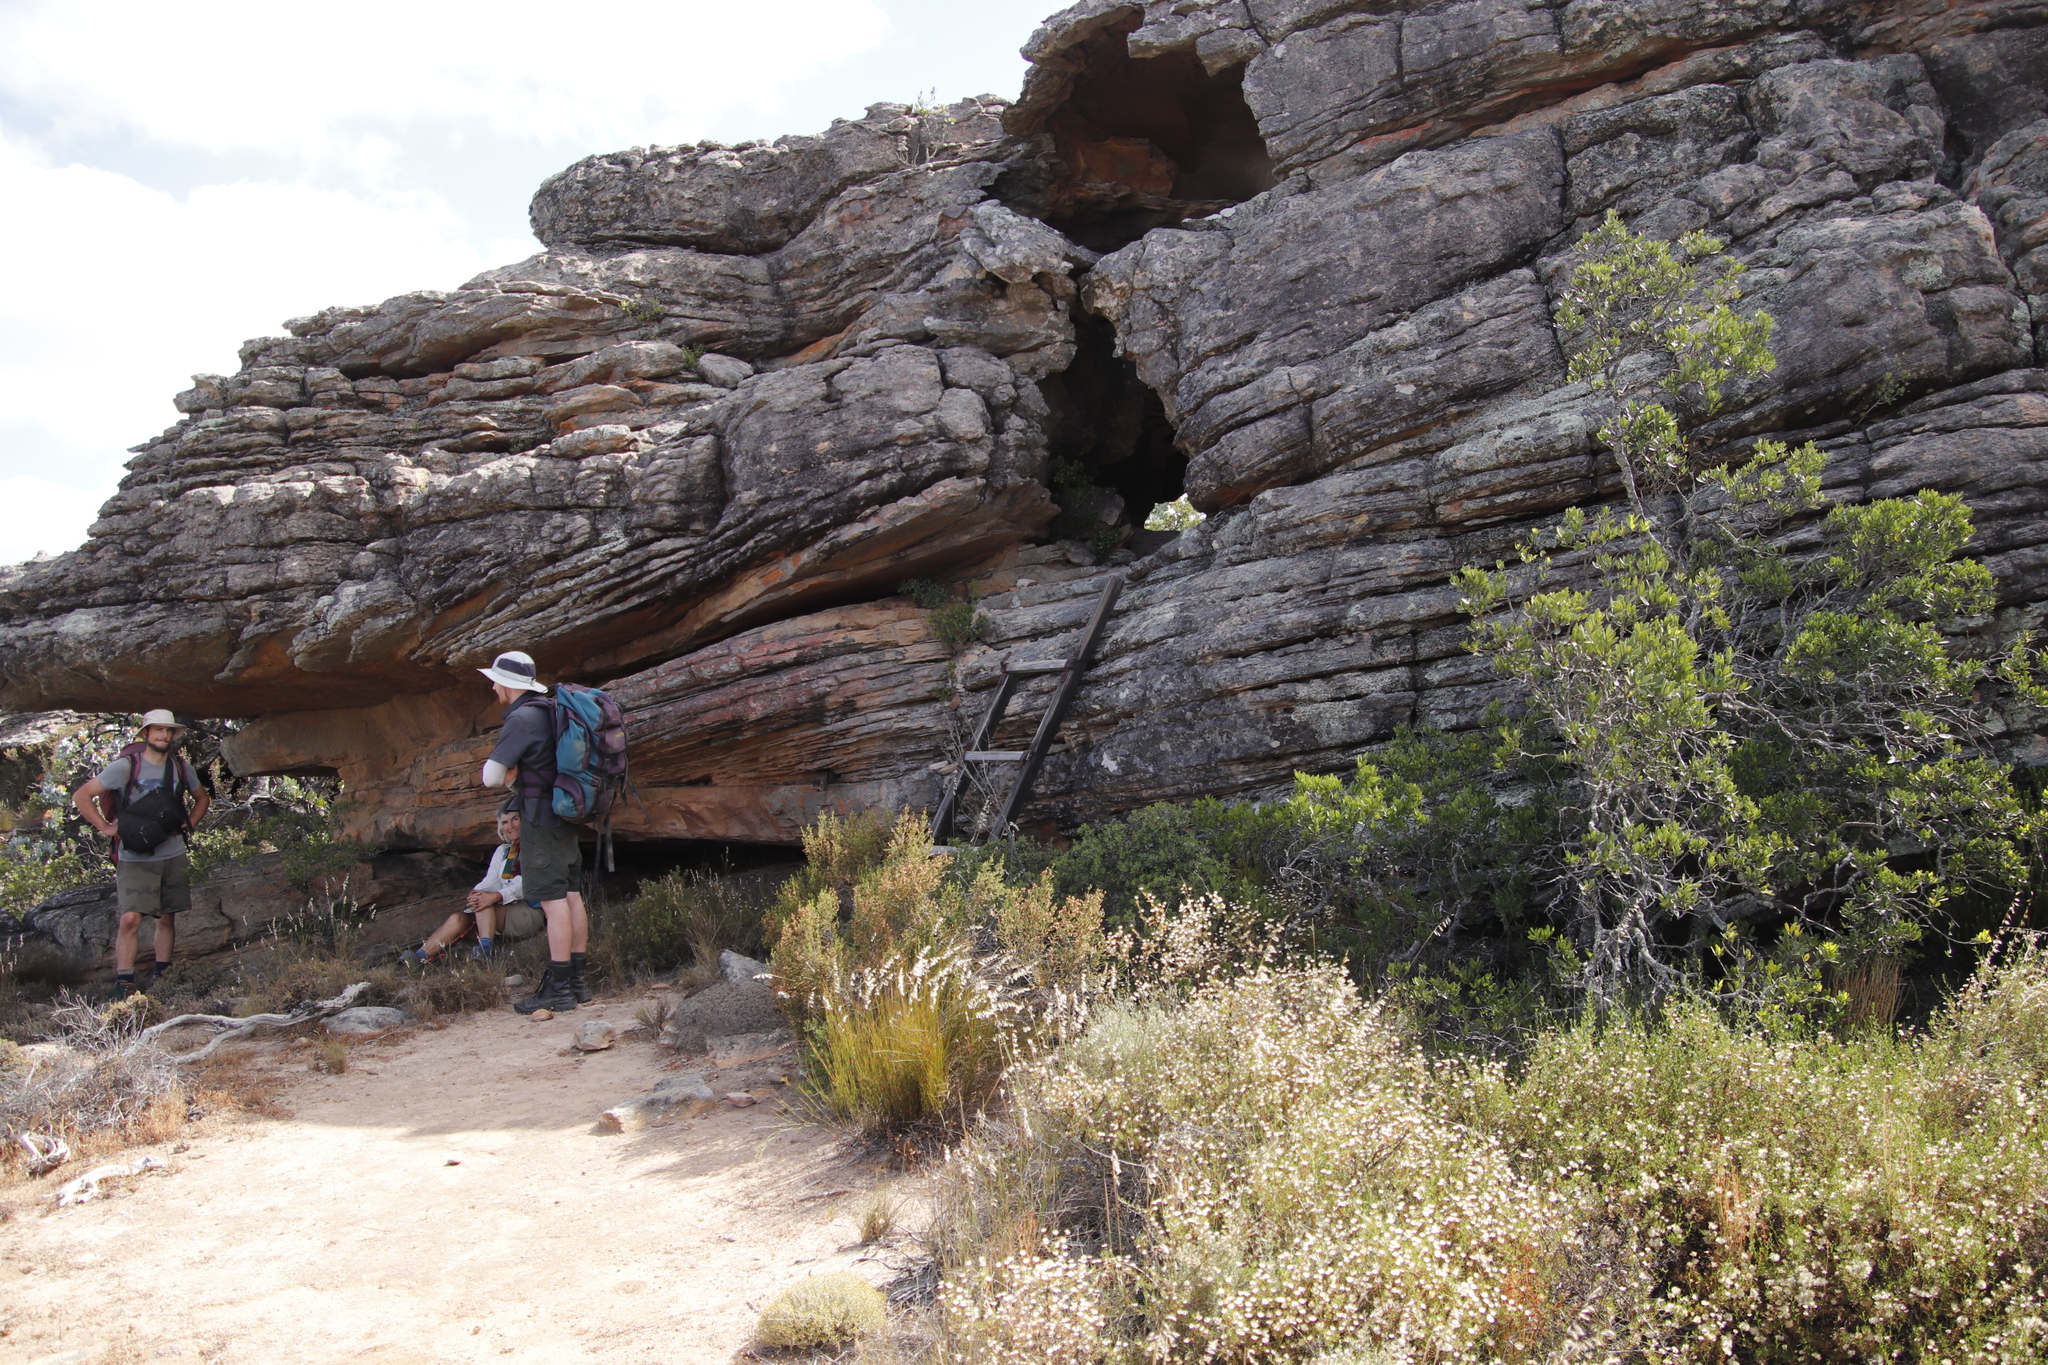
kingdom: Plantae
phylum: Tracheophyta
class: Magnoliopsida
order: Celastrales
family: Celastraceae
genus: Gymnosporia
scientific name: Gymnosporia laurina
